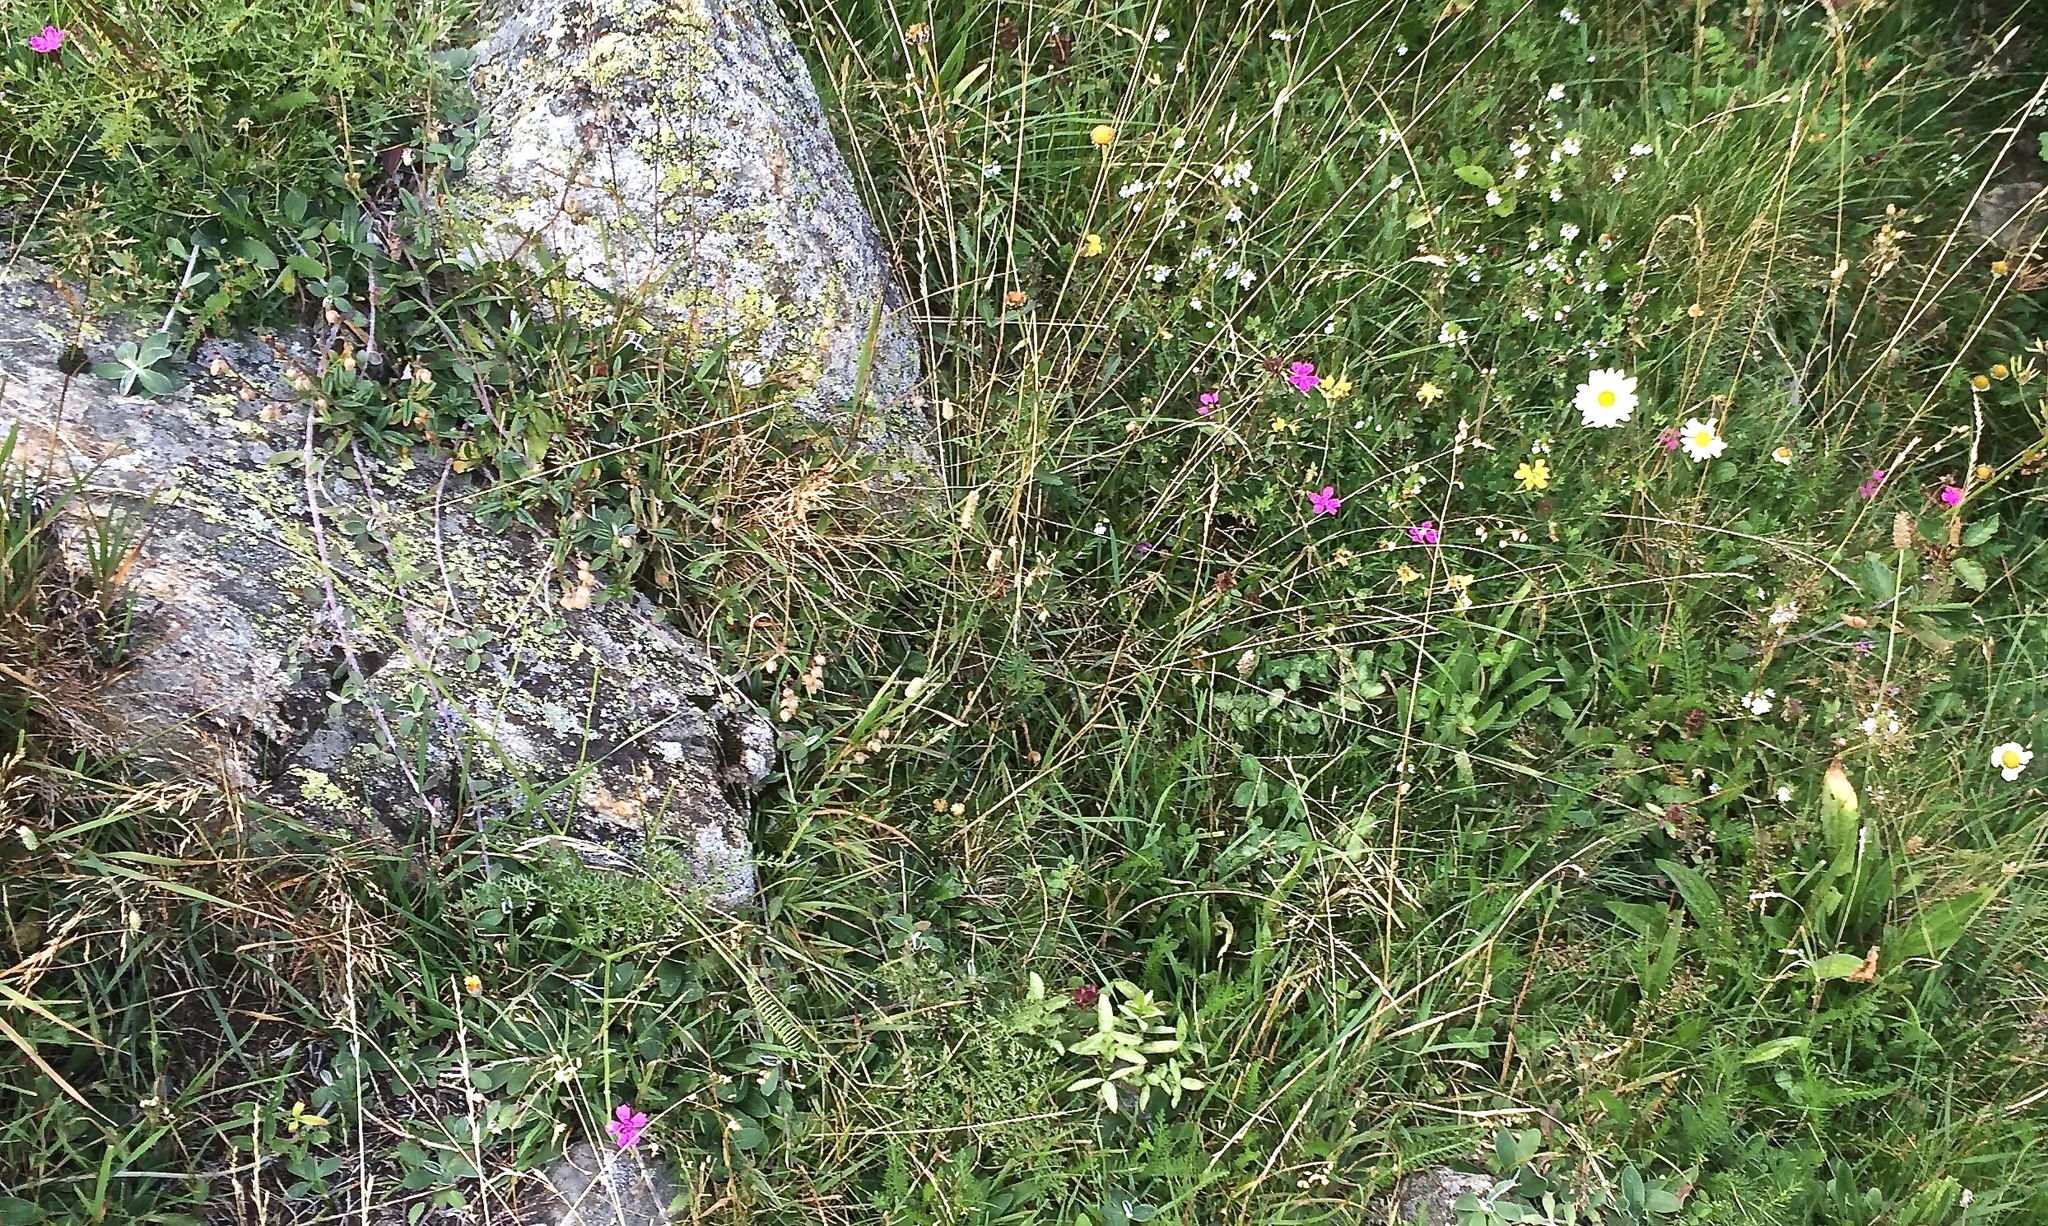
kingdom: Plantae
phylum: Tracheophyta
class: Magnoliopsida
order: Caryophyllales
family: Caryophyllaceae
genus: Dianthus
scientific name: Dianthus deltoides
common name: Maiden pink
